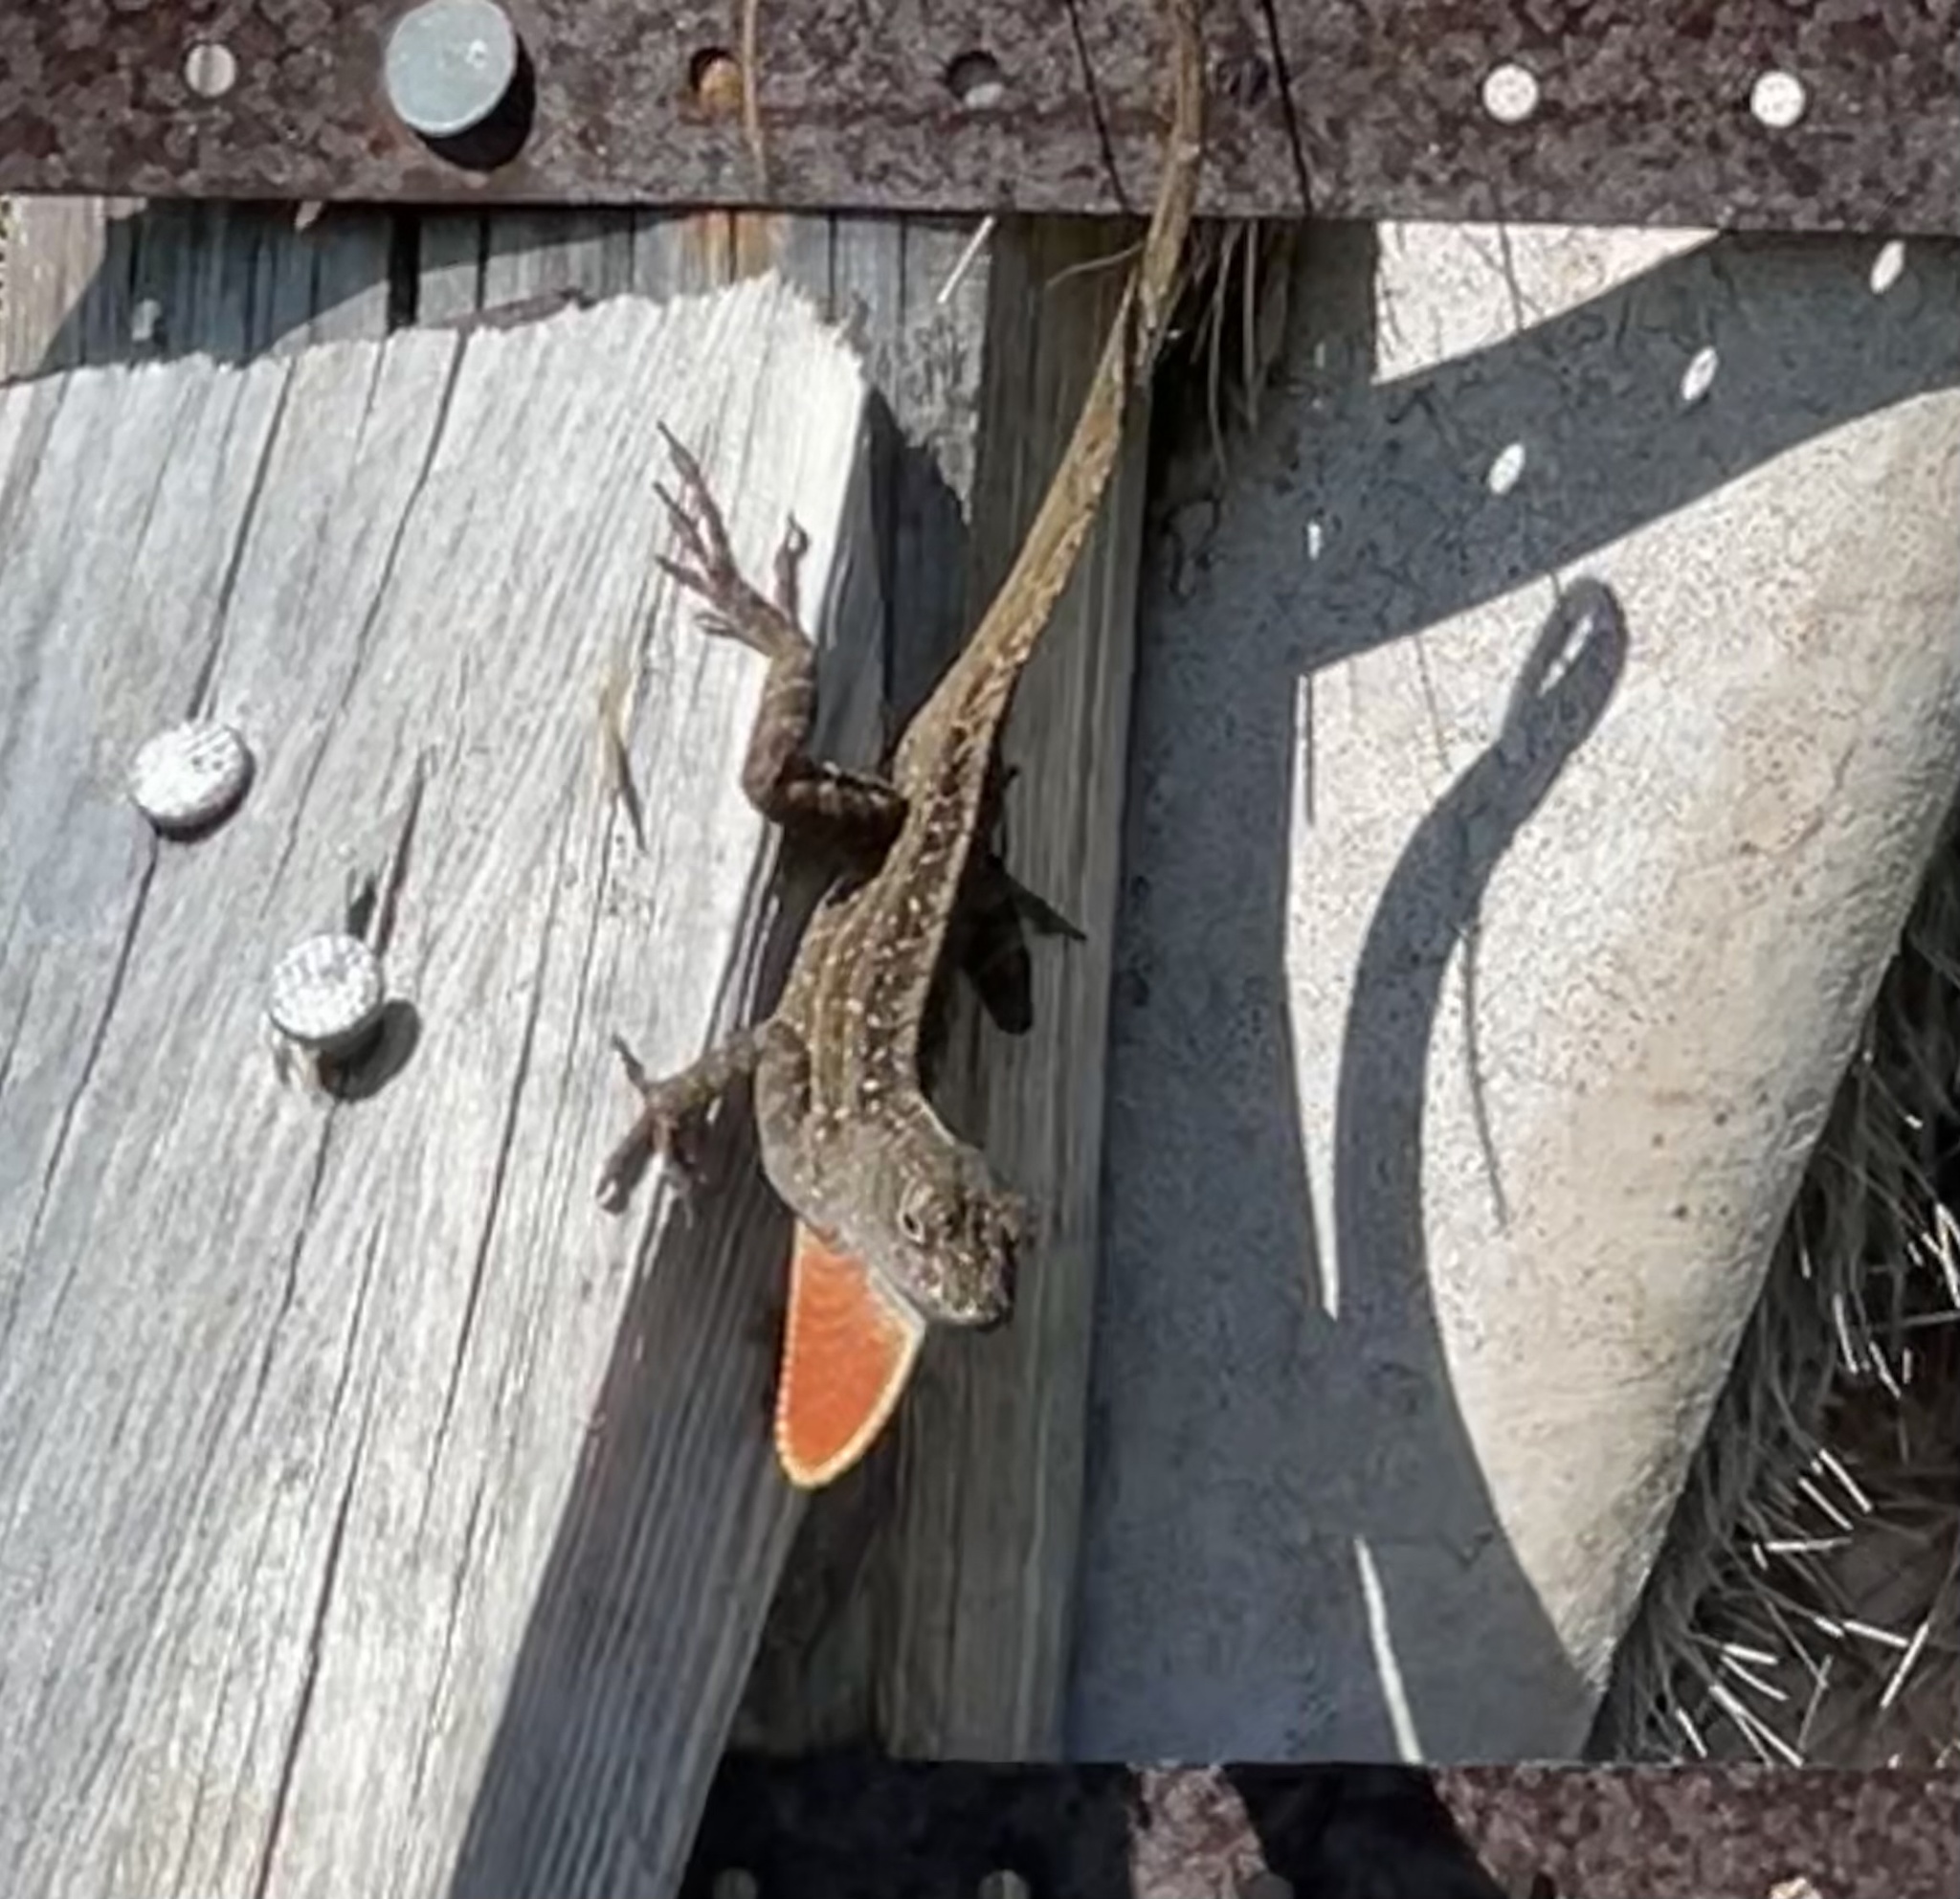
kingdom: Animalia
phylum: Chordata
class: Squamata
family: Dactyloidae
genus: Anolis
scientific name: Anolis sagrei
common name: Brown anole
